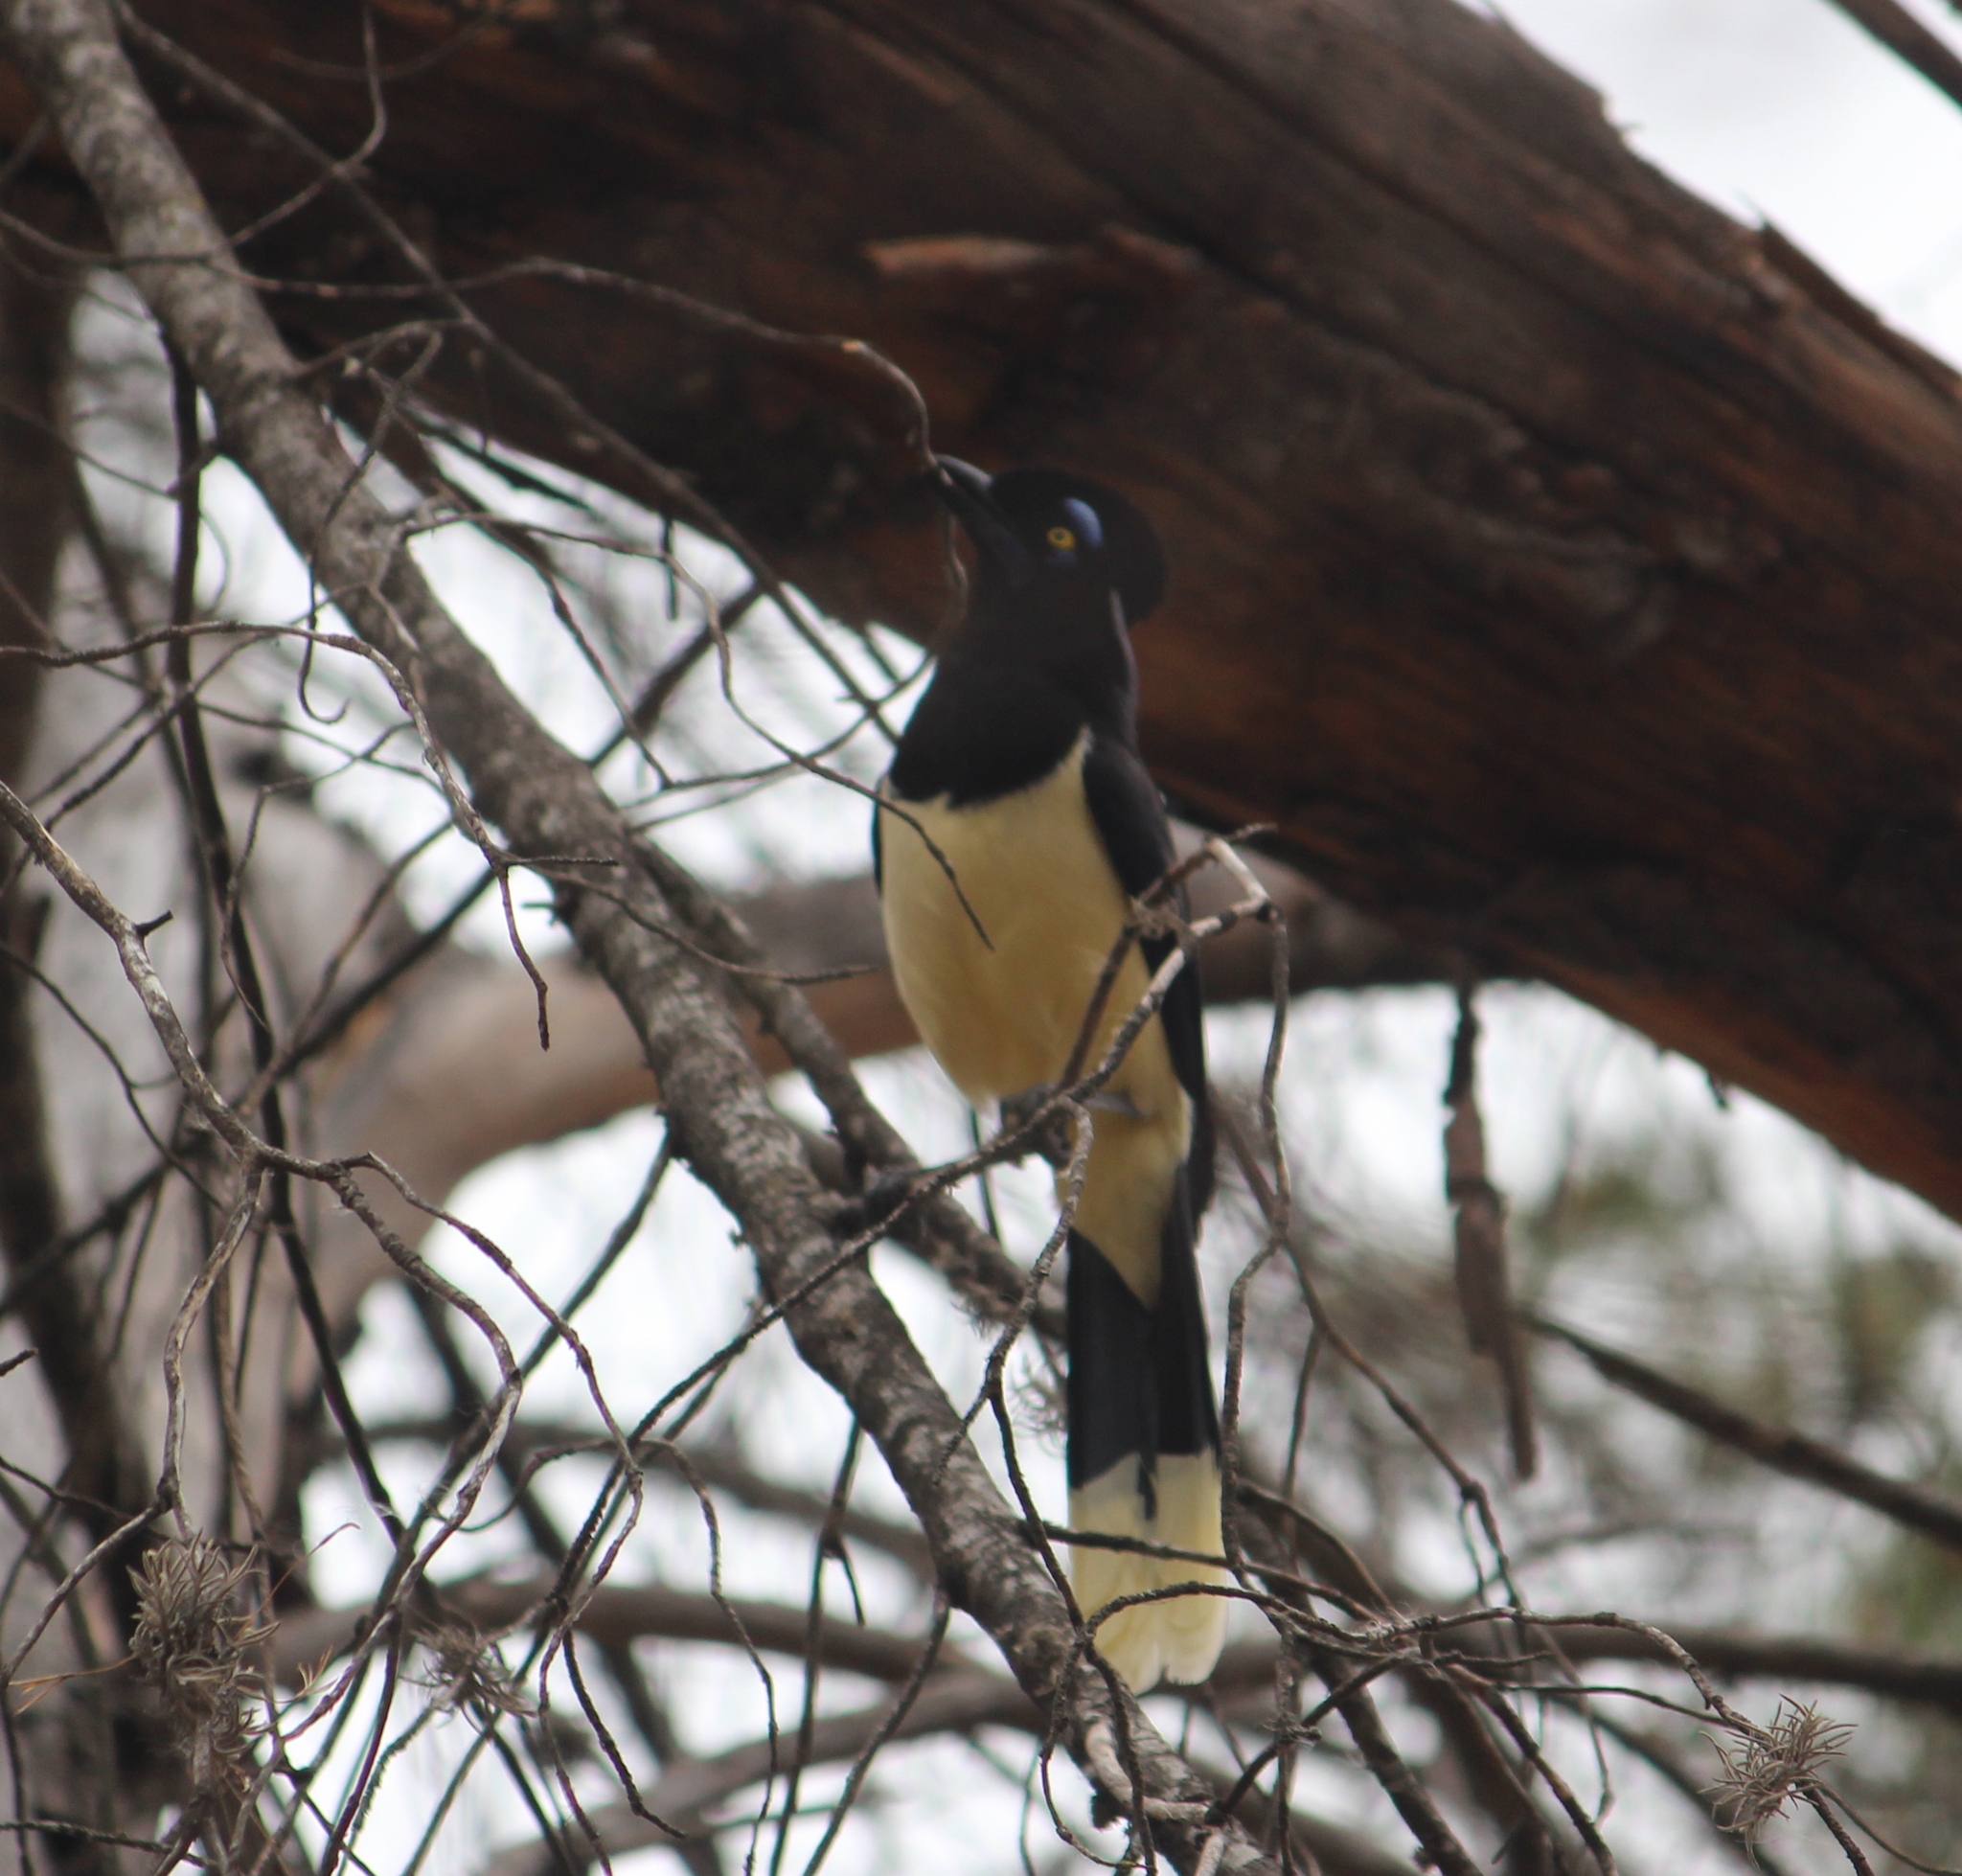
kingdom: Animalia
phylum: Chordata
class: Aves
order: Passeriformes
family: Corvidae
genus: Cyanocorax
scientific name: Cyanocorax chrysops
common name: Plush-crested jay
